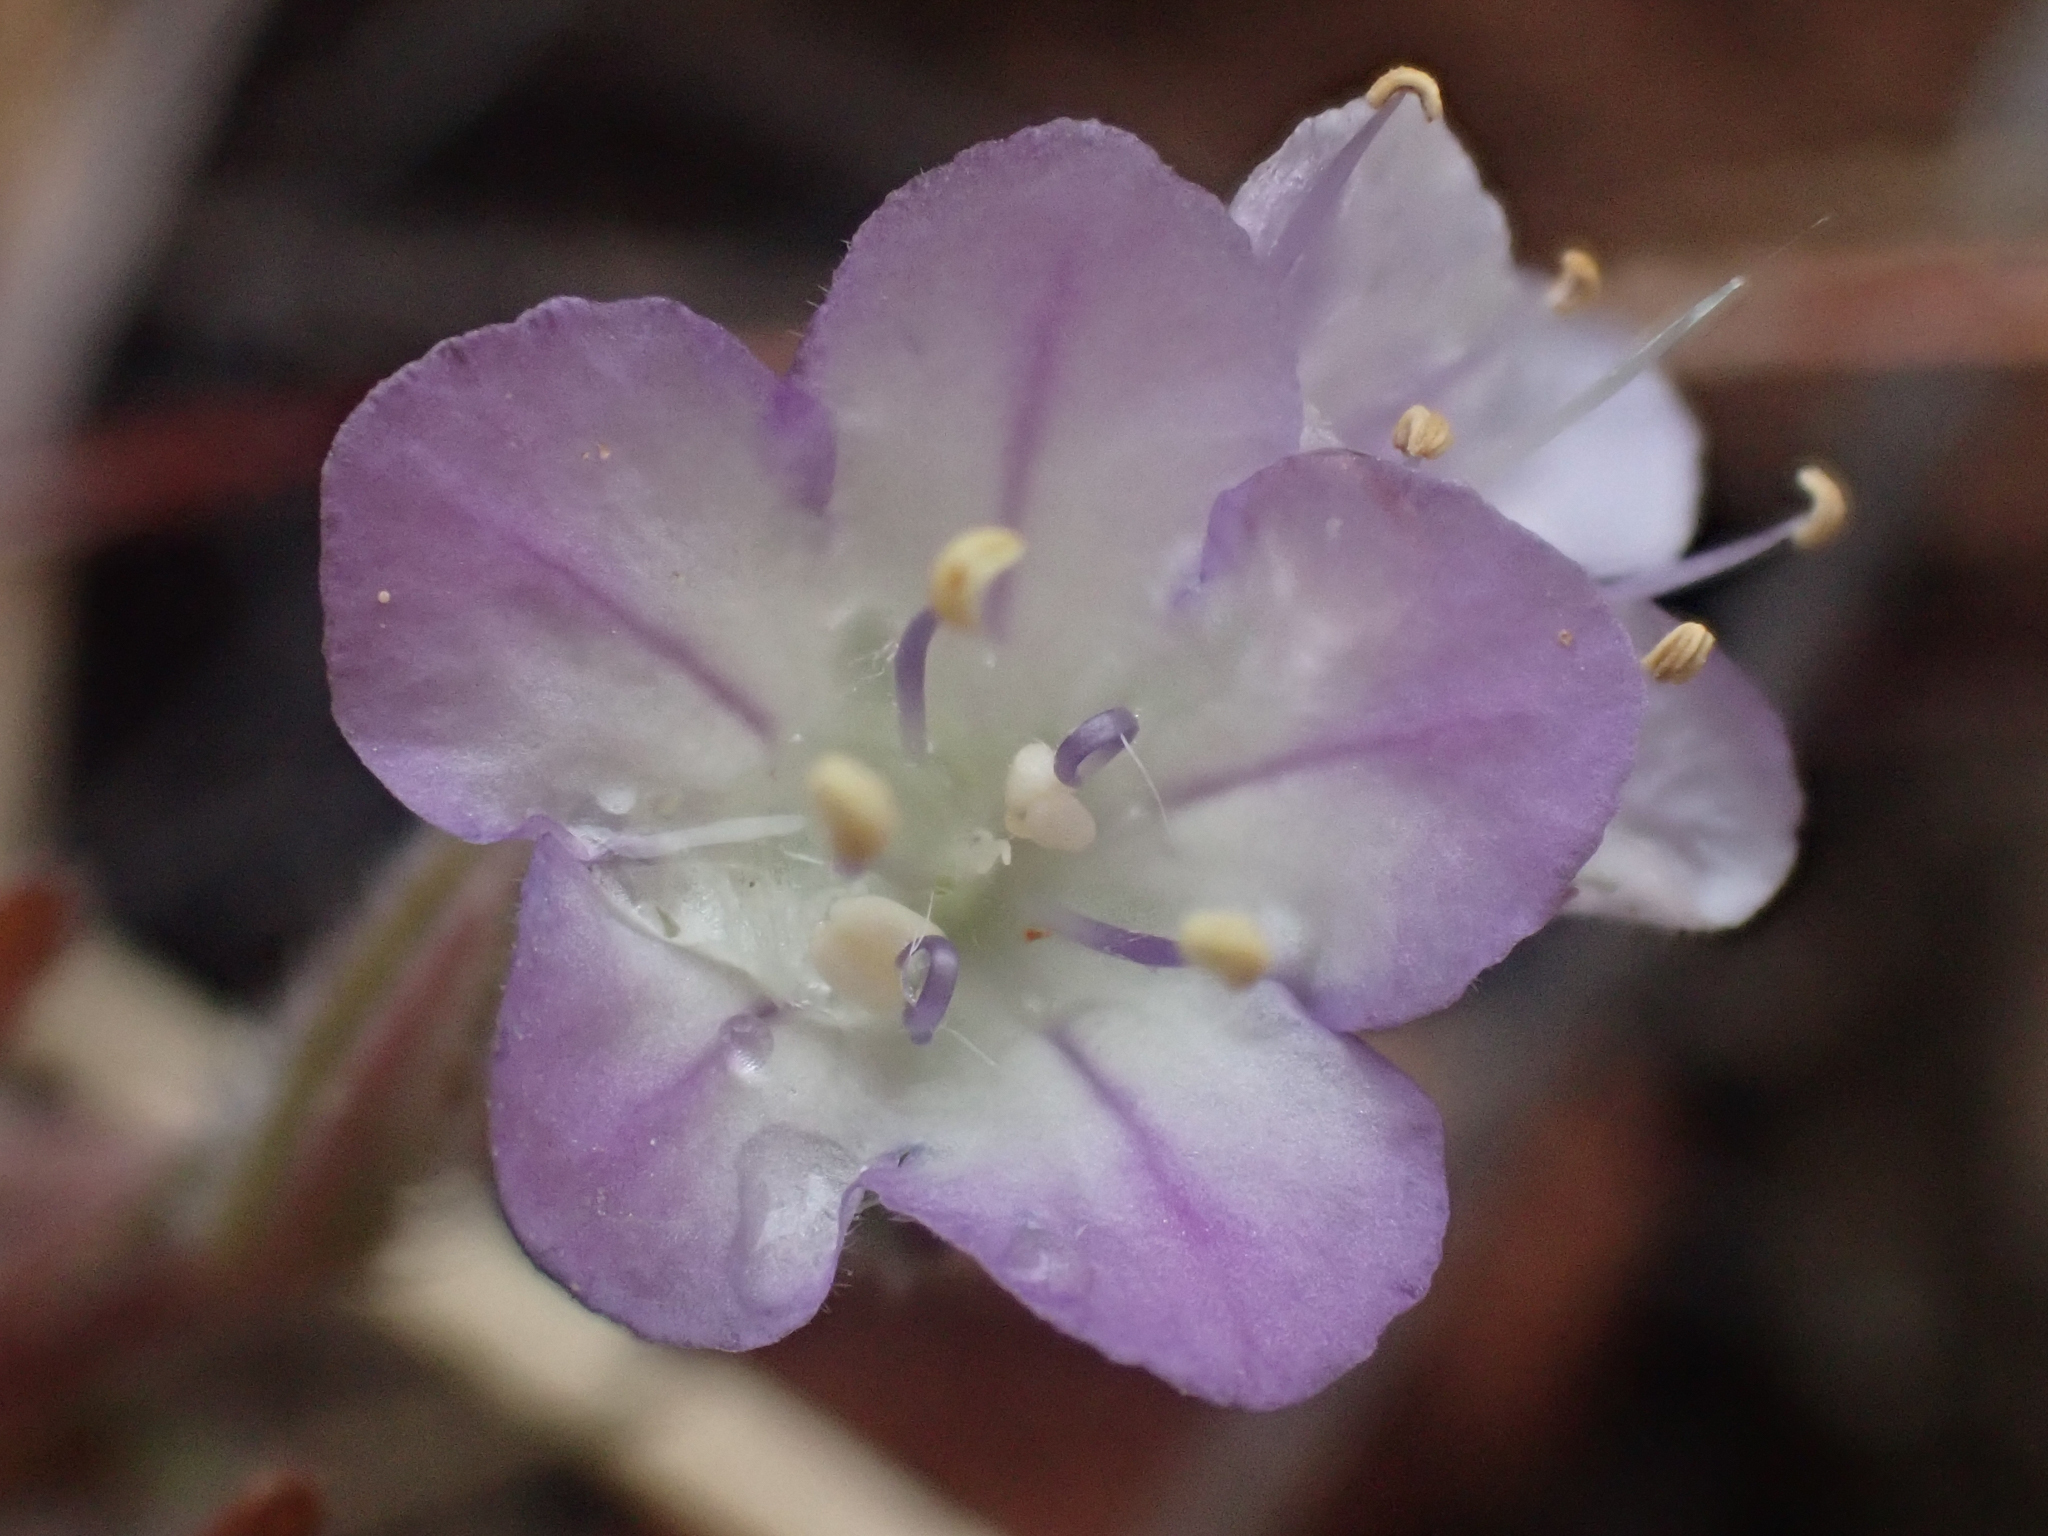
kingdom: Plantae
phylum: Tracheophyta
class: Magnoliopsida
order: Boraginales
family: Hydrophyllaceae
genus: Phacelia
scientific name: Phacelia linearis
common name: Linear-leaved phacelia
